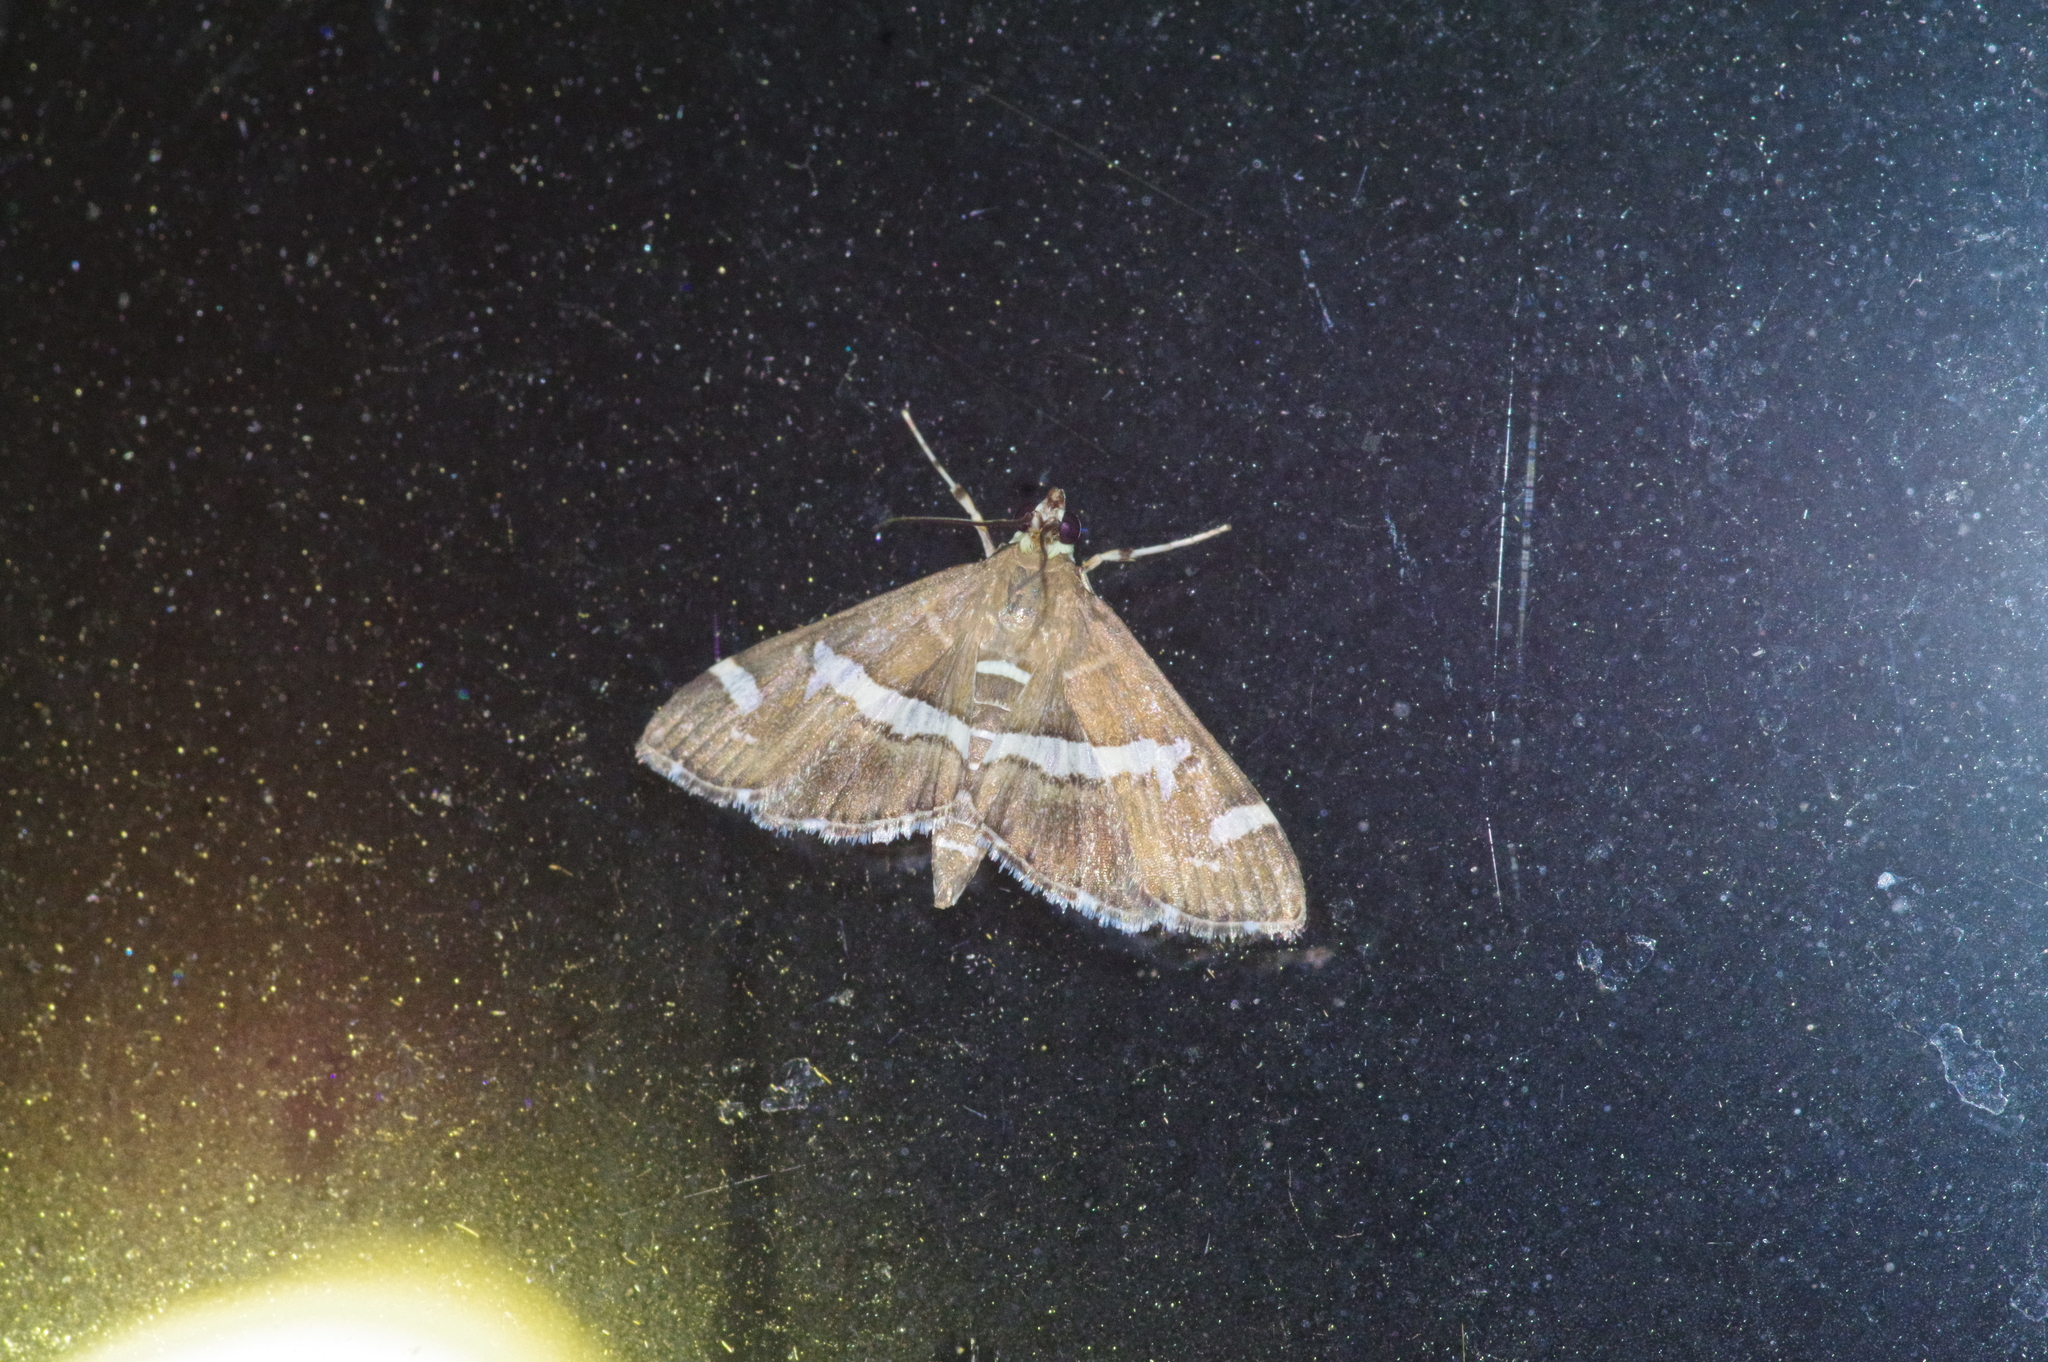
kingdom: Animalia
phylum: Arthropoda
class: Insecta
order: Lepidoptera
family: Crambidae
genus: Spoladea
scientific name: Spoladea recurvalis
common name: Beet webworm moth
